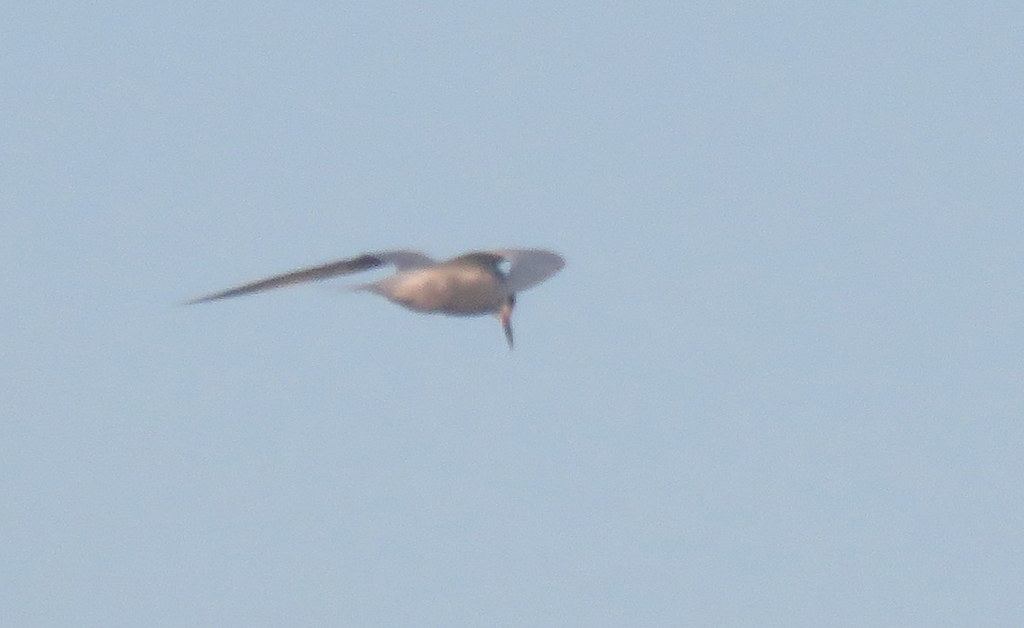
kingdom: Animalia
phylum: Chordata
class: Aves
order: Charadriiformes
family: Laridae
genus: Sterna
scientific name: Sterna trudeaui
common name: Snowy-crowned tern
